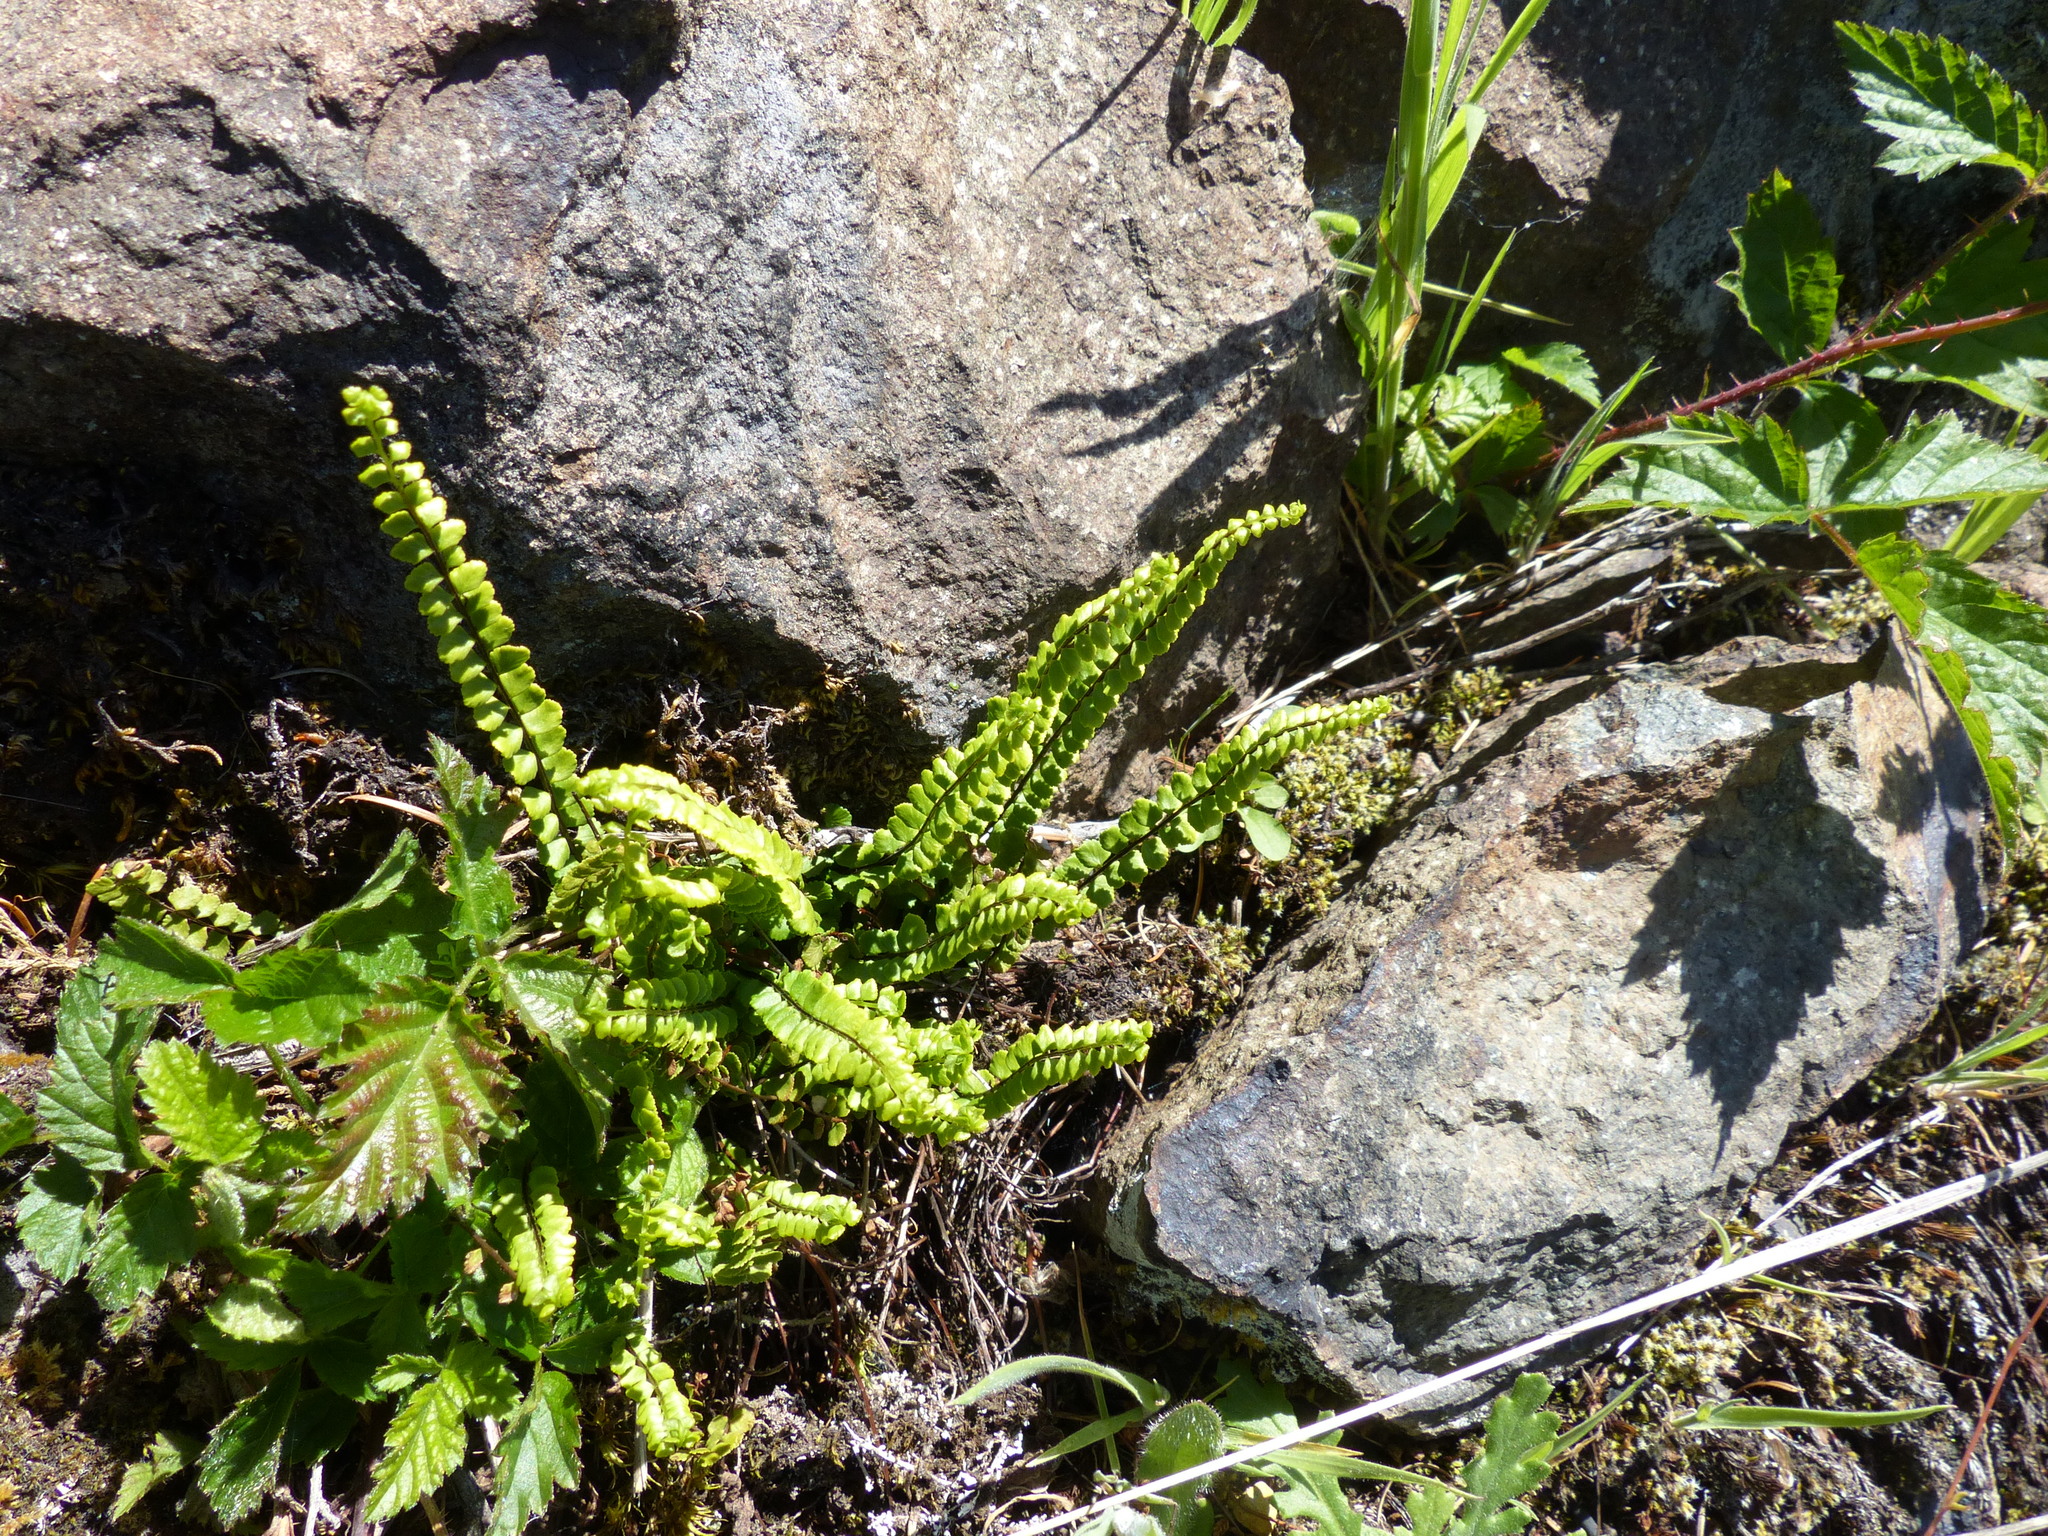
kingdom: Plantae
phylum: Tracheophyta
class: Polypodiopsida
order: Polypodiales
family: Aspleniaceae
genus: Asplenium
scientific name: Asplenium trichomanes
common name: Maidenhair spleenwort
